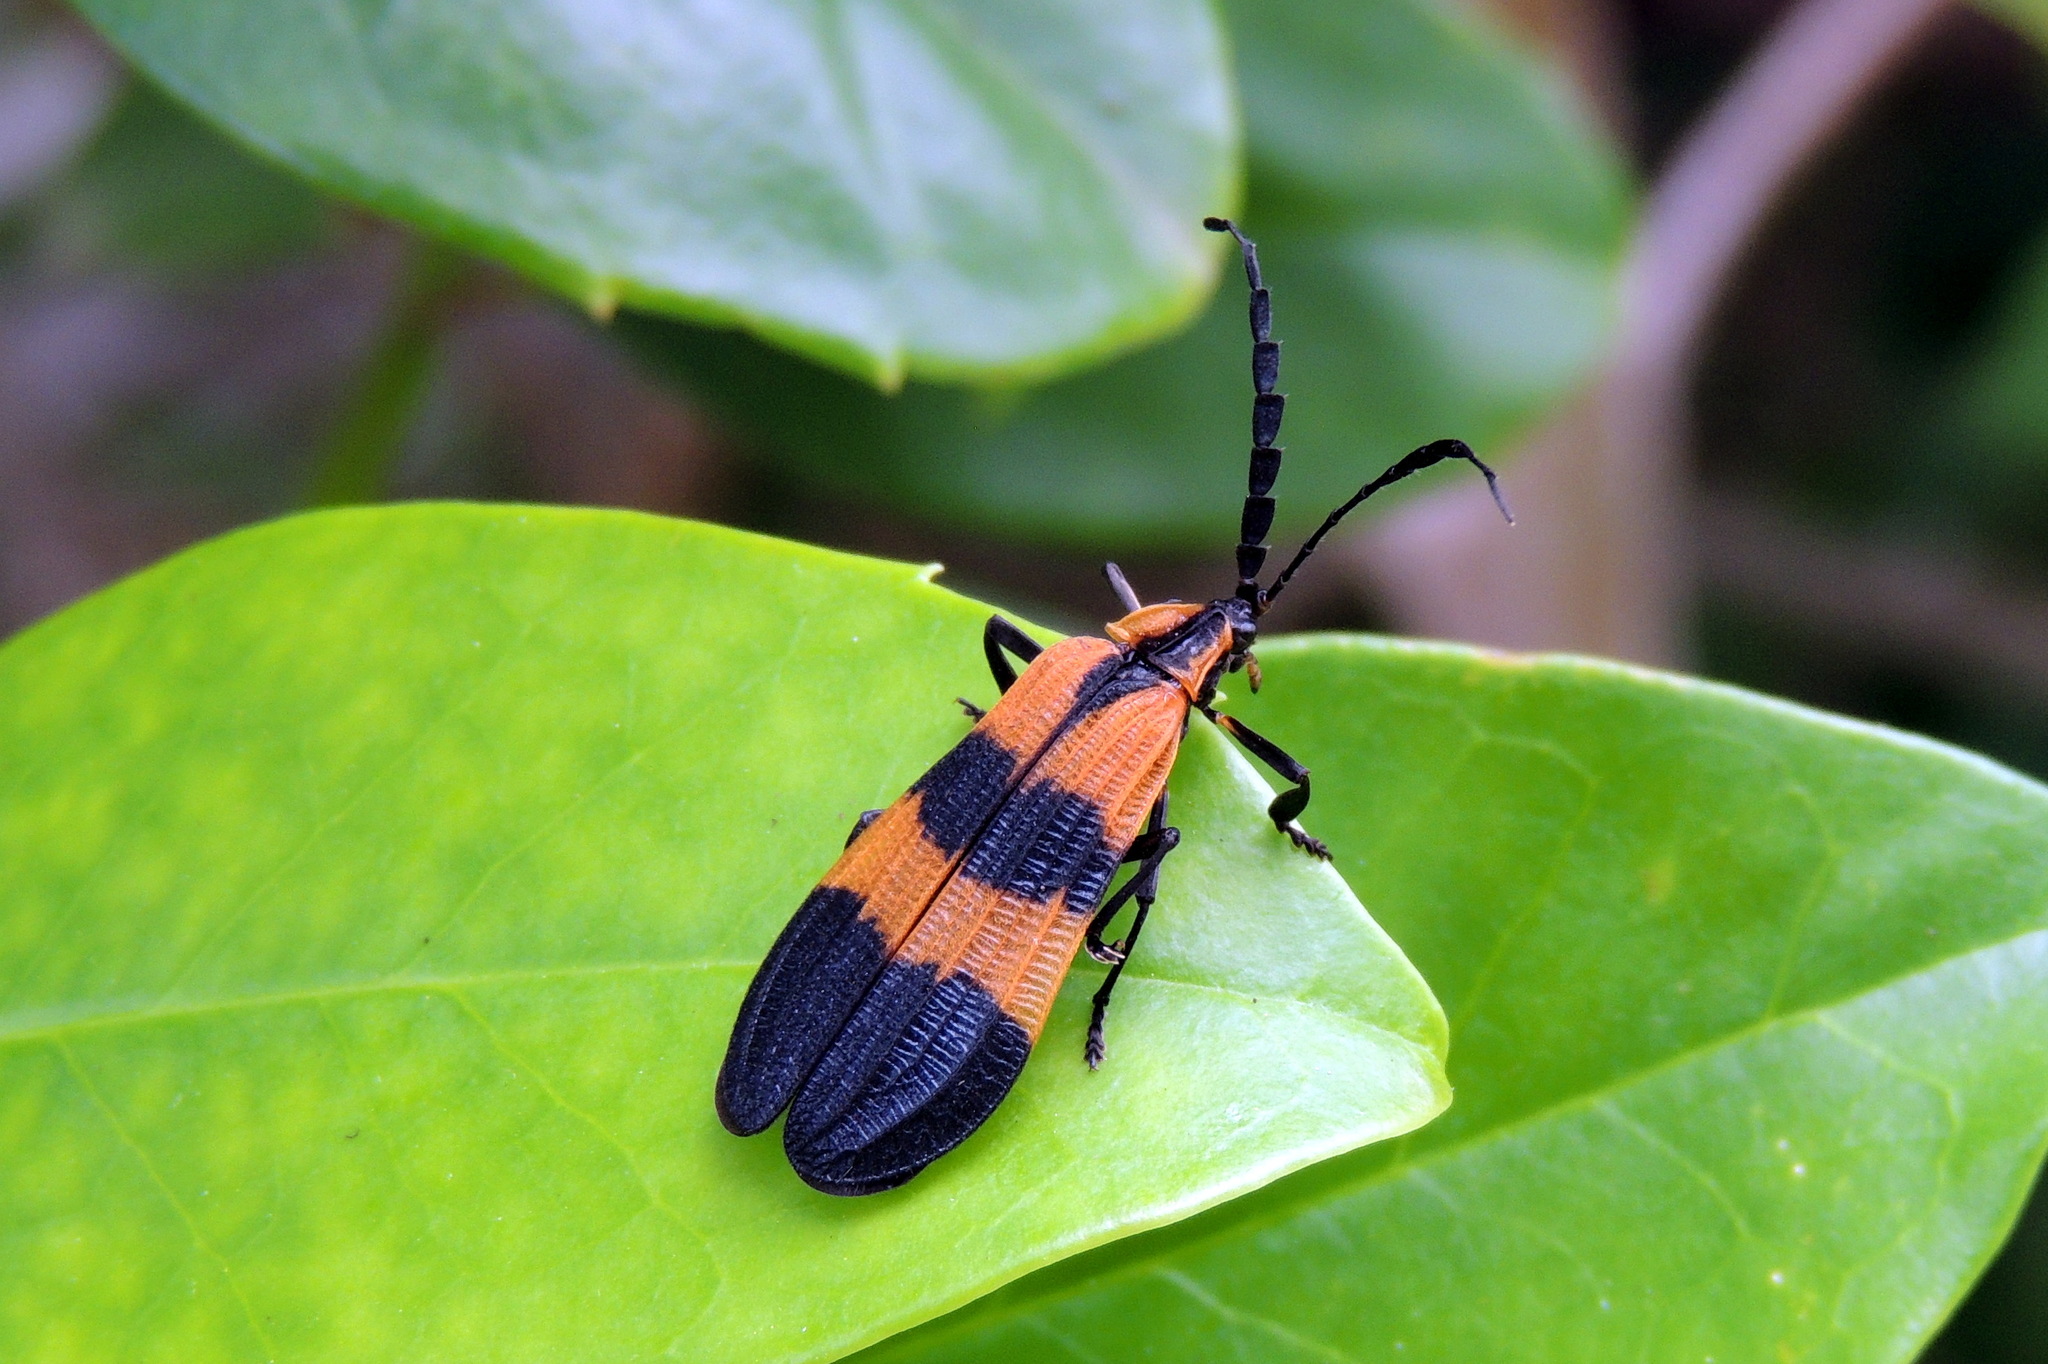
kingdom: Animalia
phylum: Arthropoda
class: Insecta
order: Coleoptera
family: Lycidae
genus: Calopteron
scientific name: Calopteron discrepans
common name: Banded net-winged beetle
